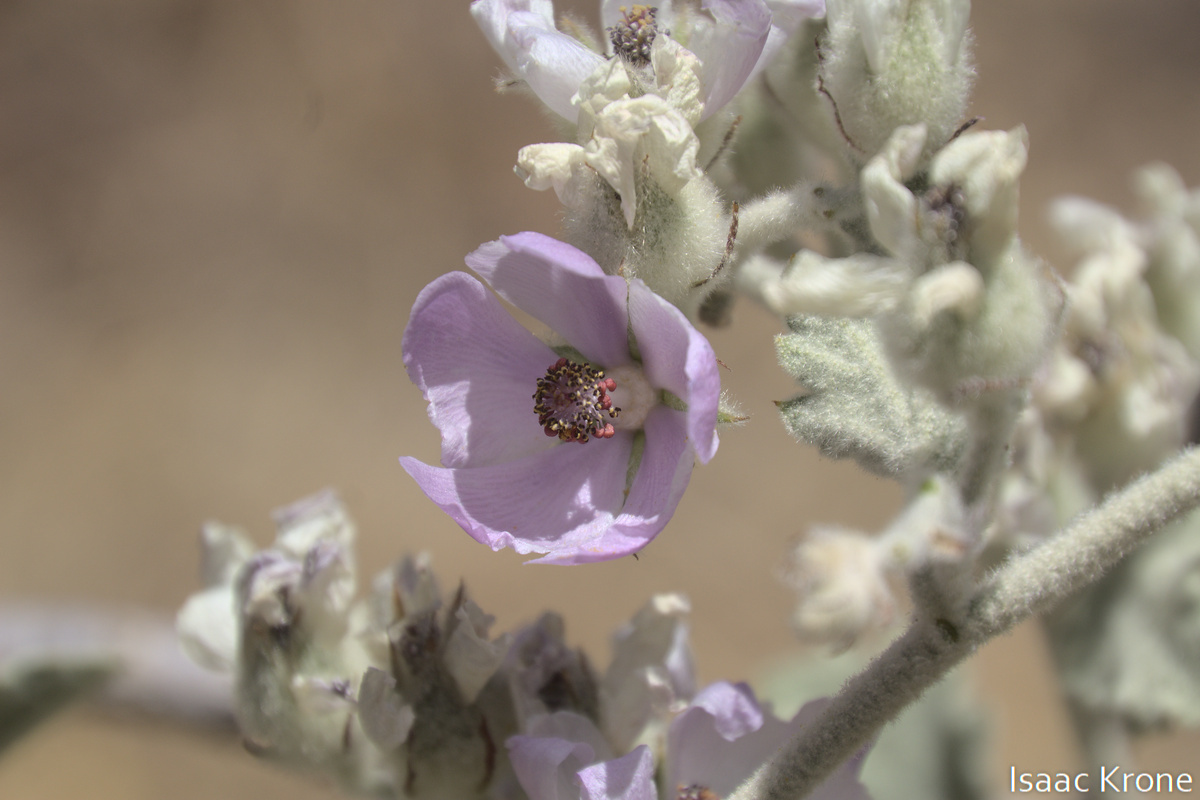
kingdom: Plantae
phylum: Tracheophyta
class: Magnoliopsida
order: Malvales
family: Malvaceae
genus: Malacothamnus
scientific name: Malacothamnus fremontii
